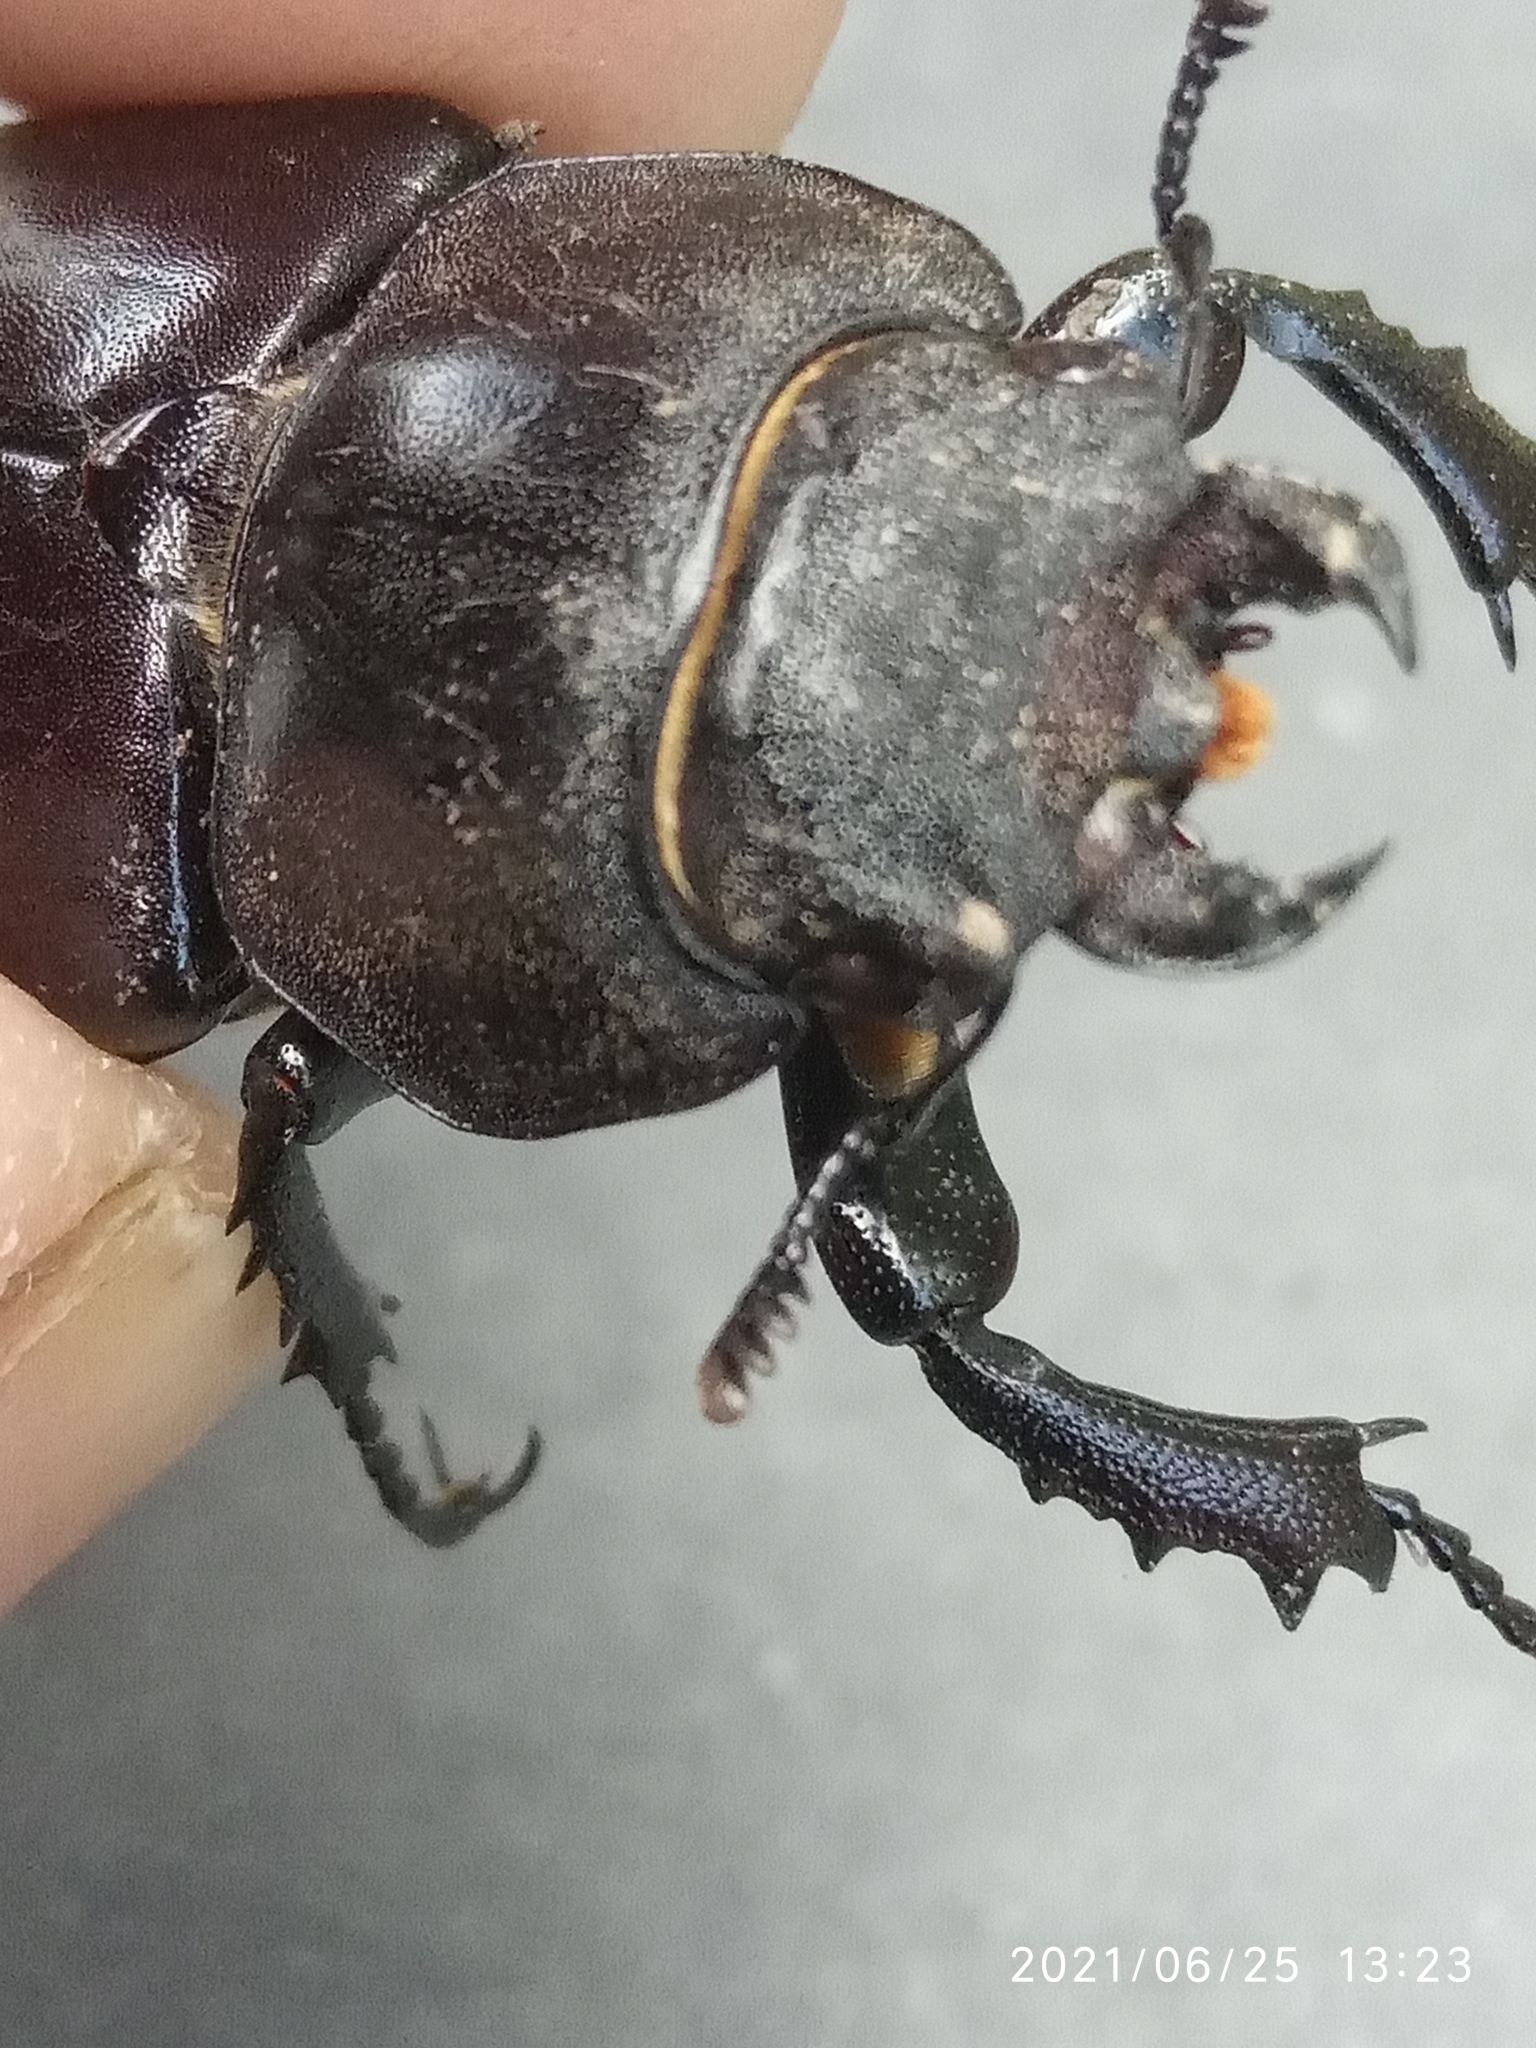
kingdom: Animalia
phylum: Arthropoda
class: Insecta
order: Coleoptera
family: Lucanidae
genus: Lucanus
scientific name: Lucanus cervus
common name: Stag beetle
